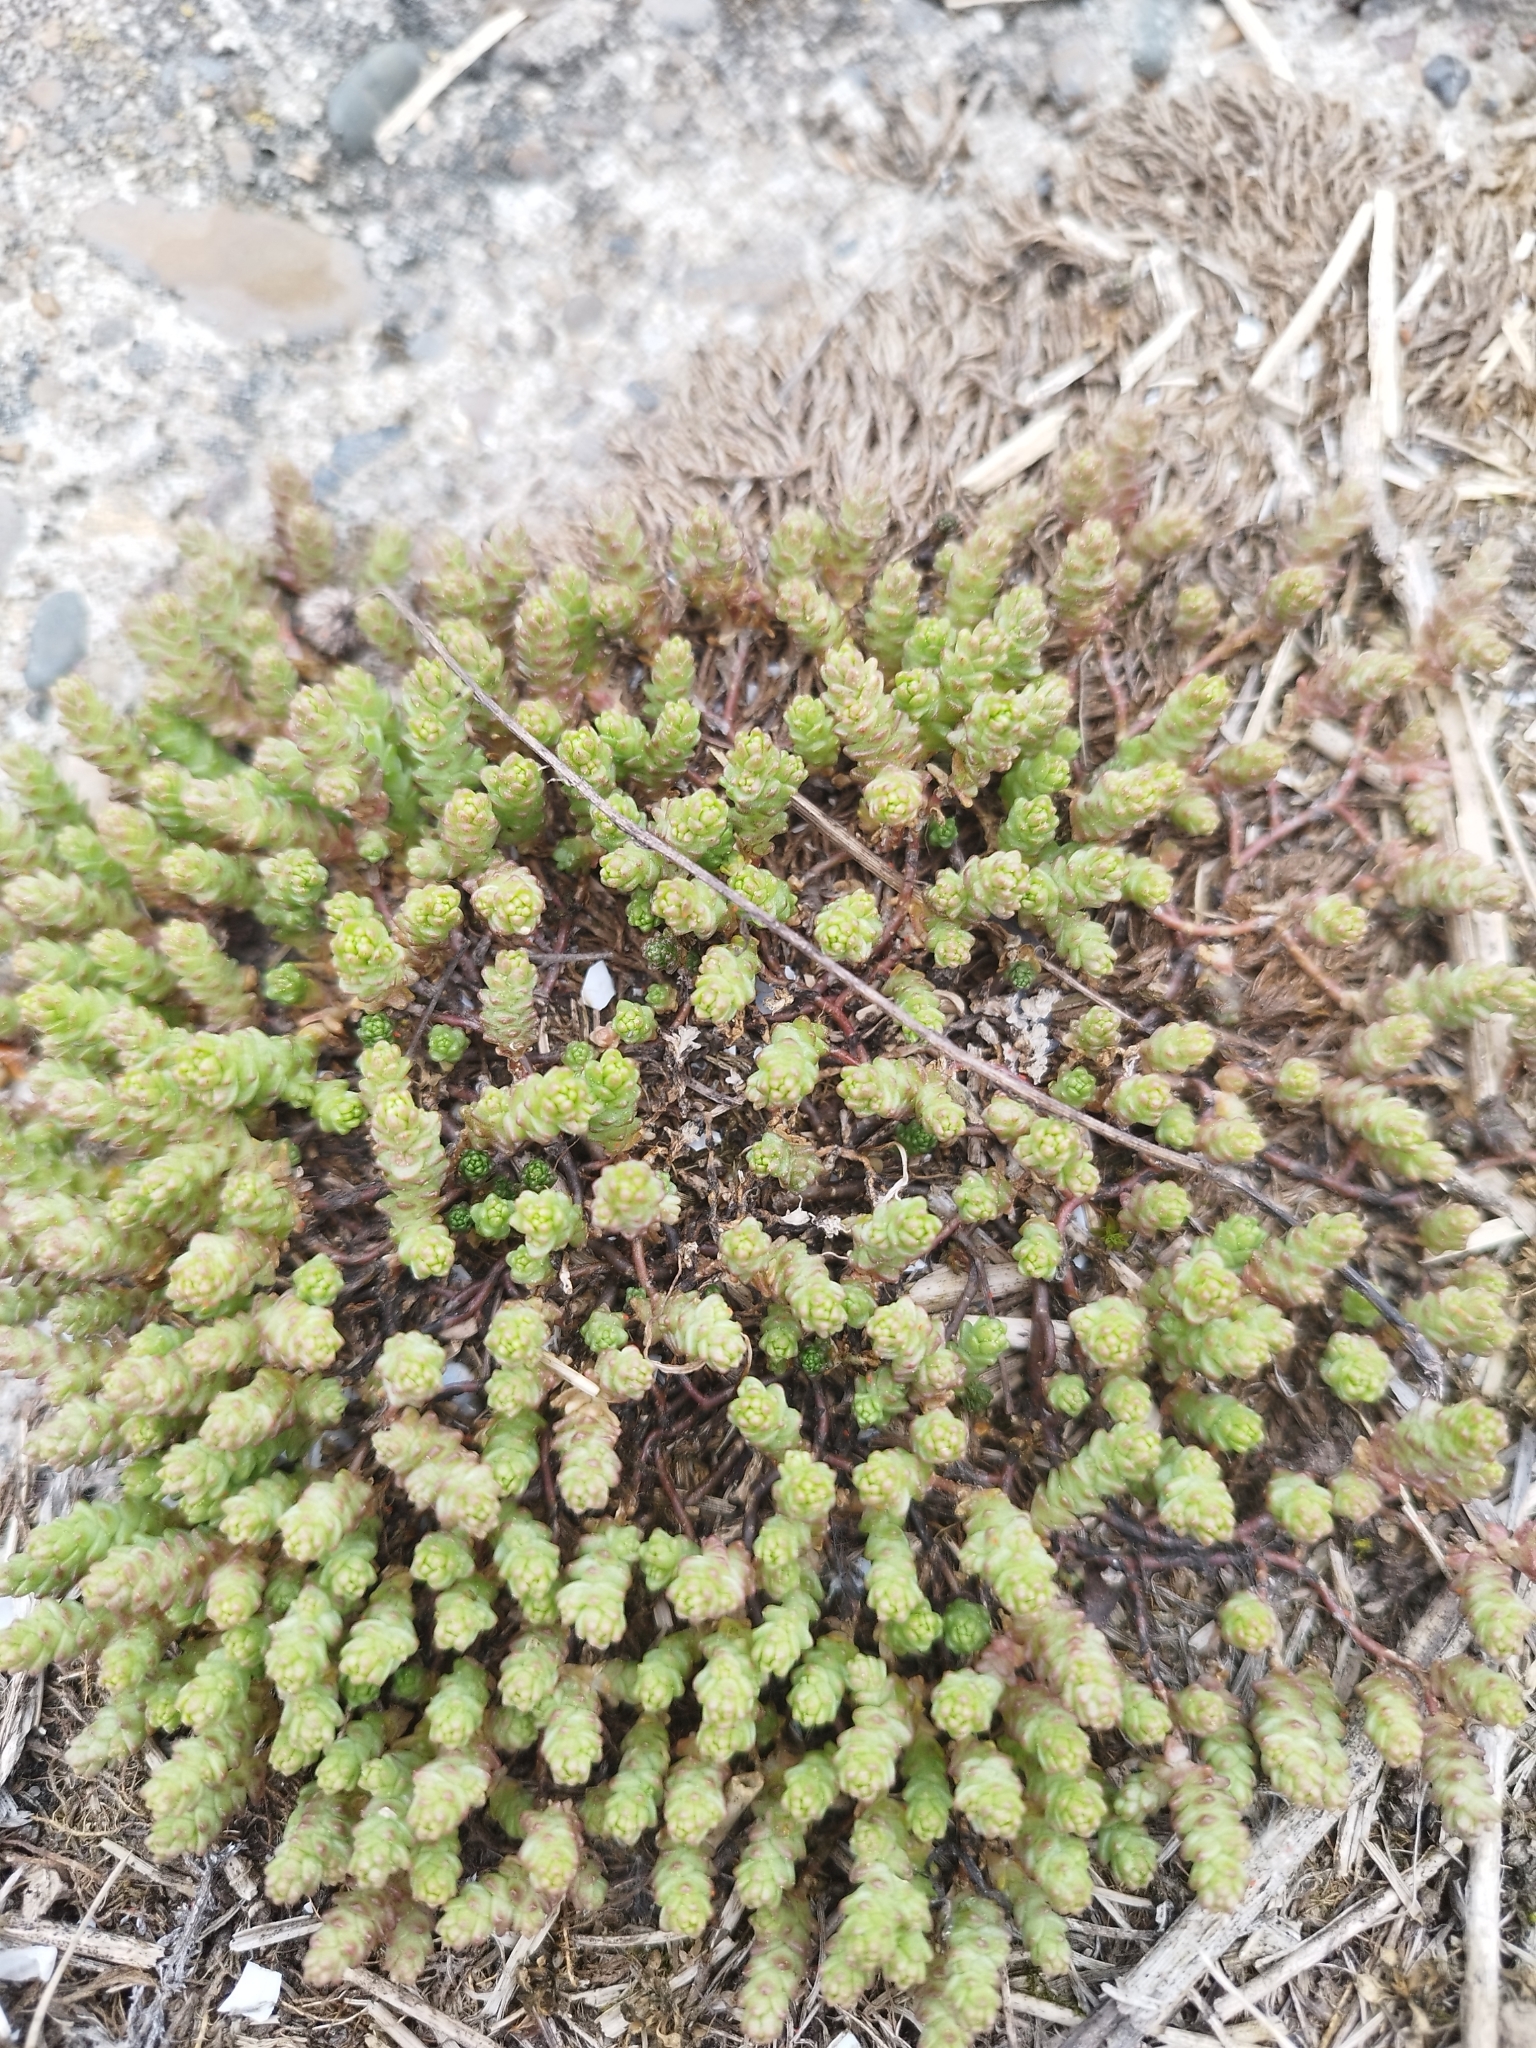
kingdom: Plantae
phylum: Tracheophyta
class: Magnoliopsida
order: Saxifragales
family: Crassulaceae
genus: Sedum
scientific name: Sedum acre
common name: Biting stonecrop
